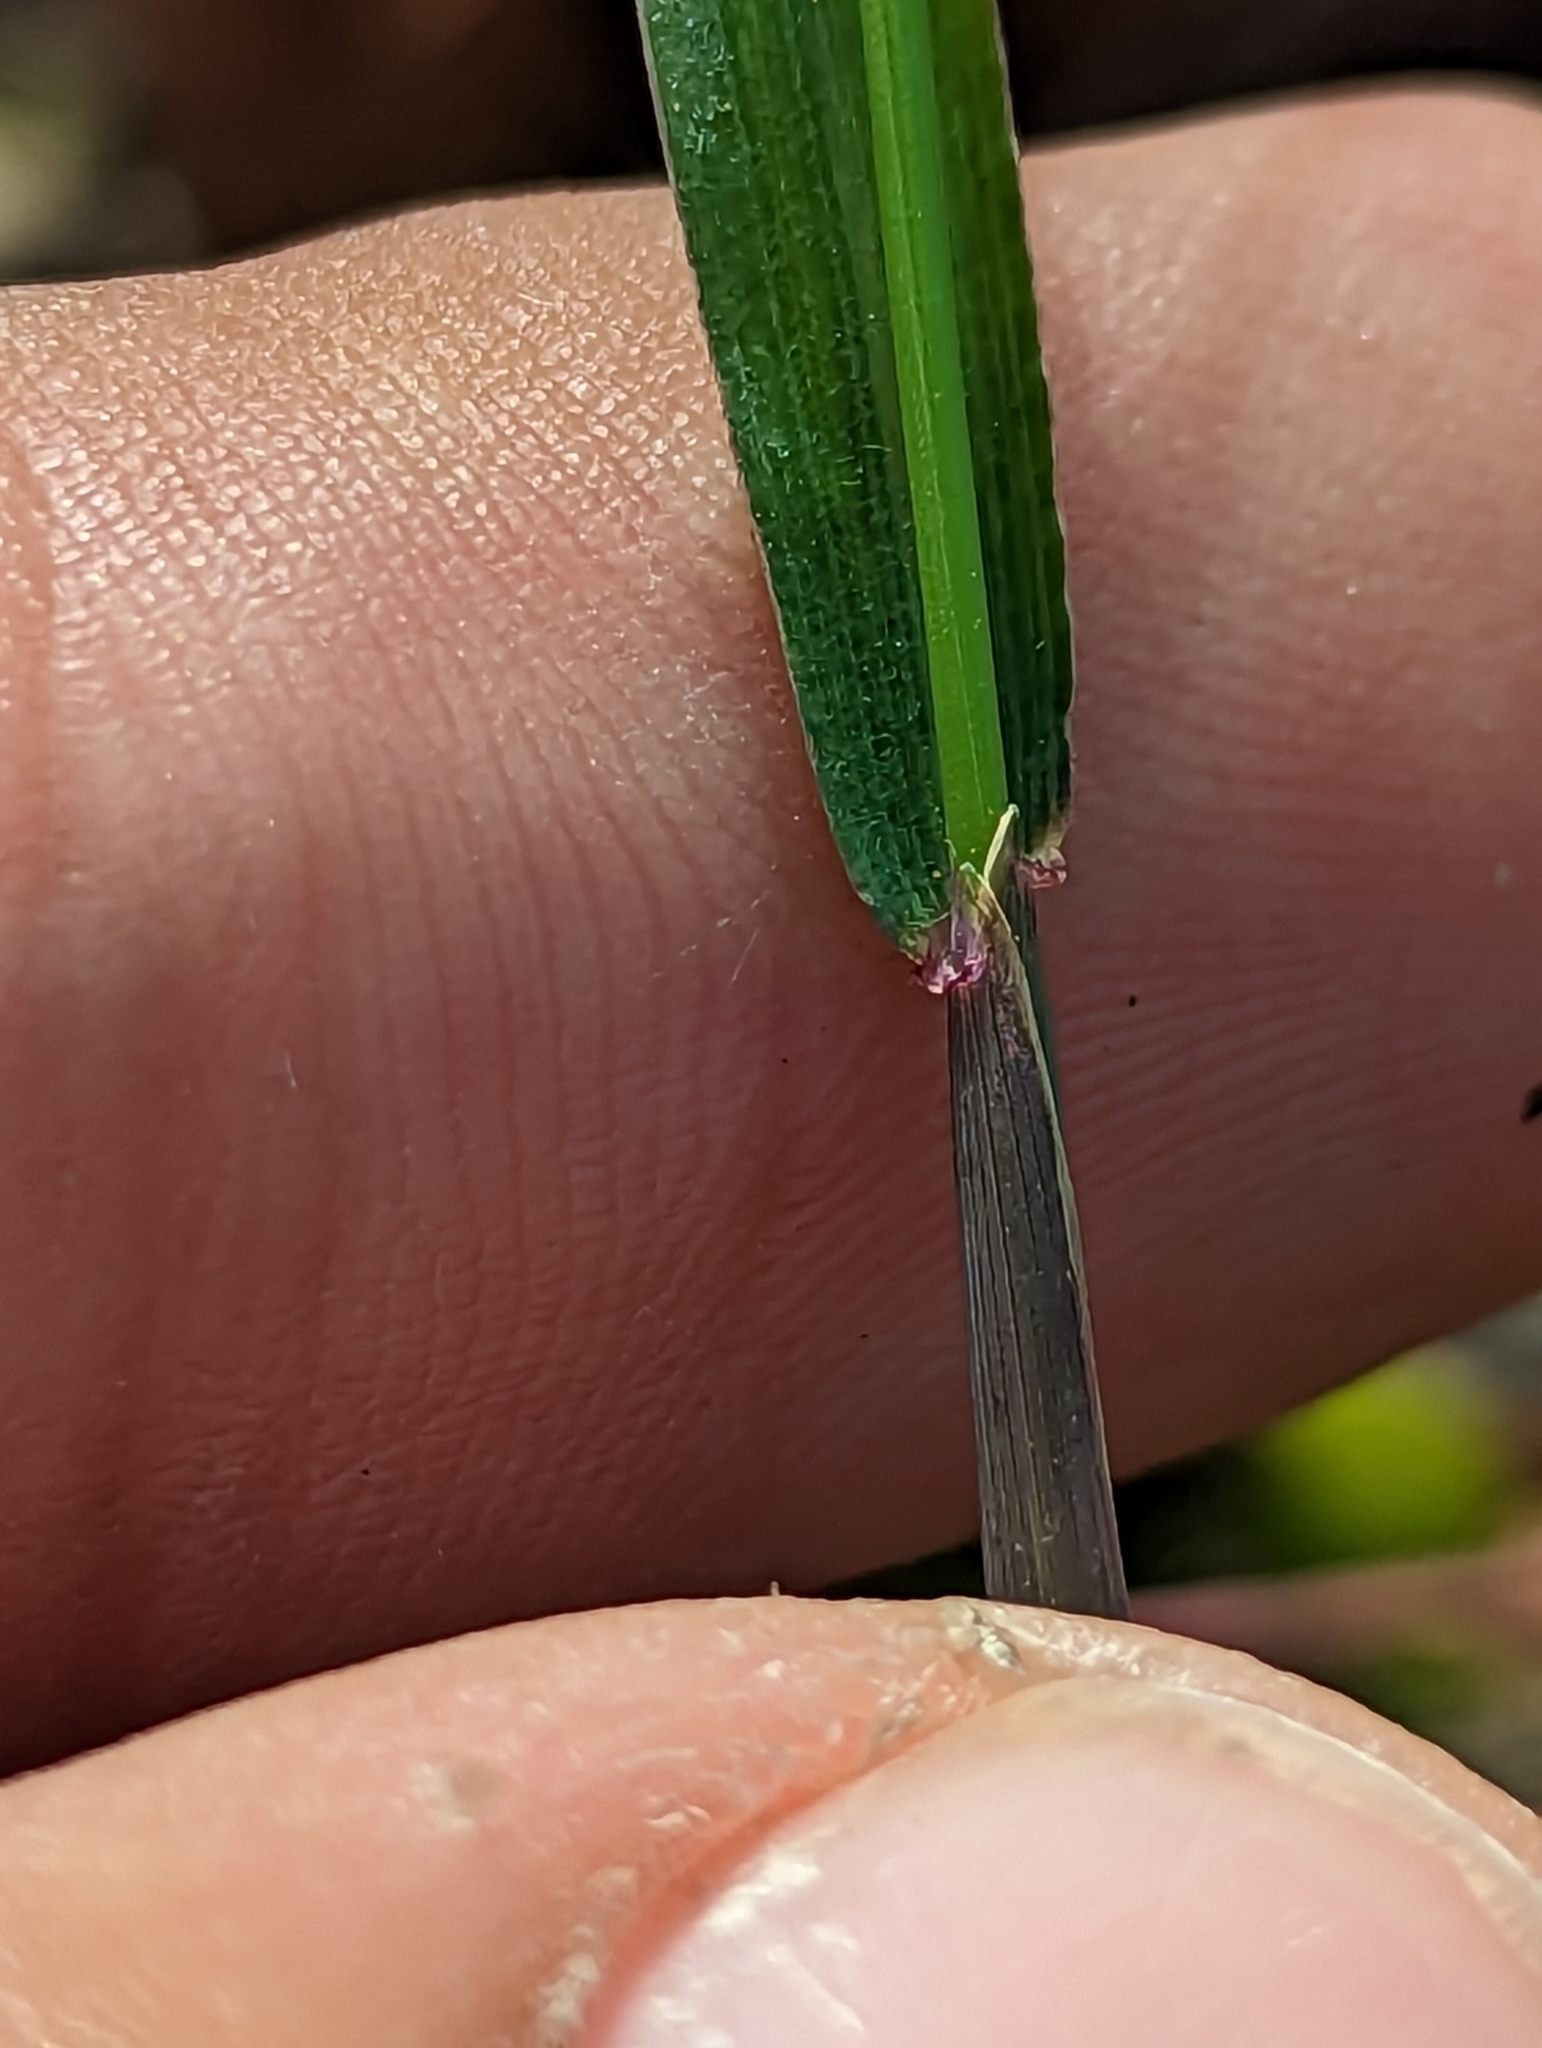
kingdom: Plantae
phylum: Tracheophyta
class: Liliopsida
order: Poales
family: Poaceae
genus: Anthephora
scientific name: Anthephora hermaphrodita
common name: Oldfield grass
